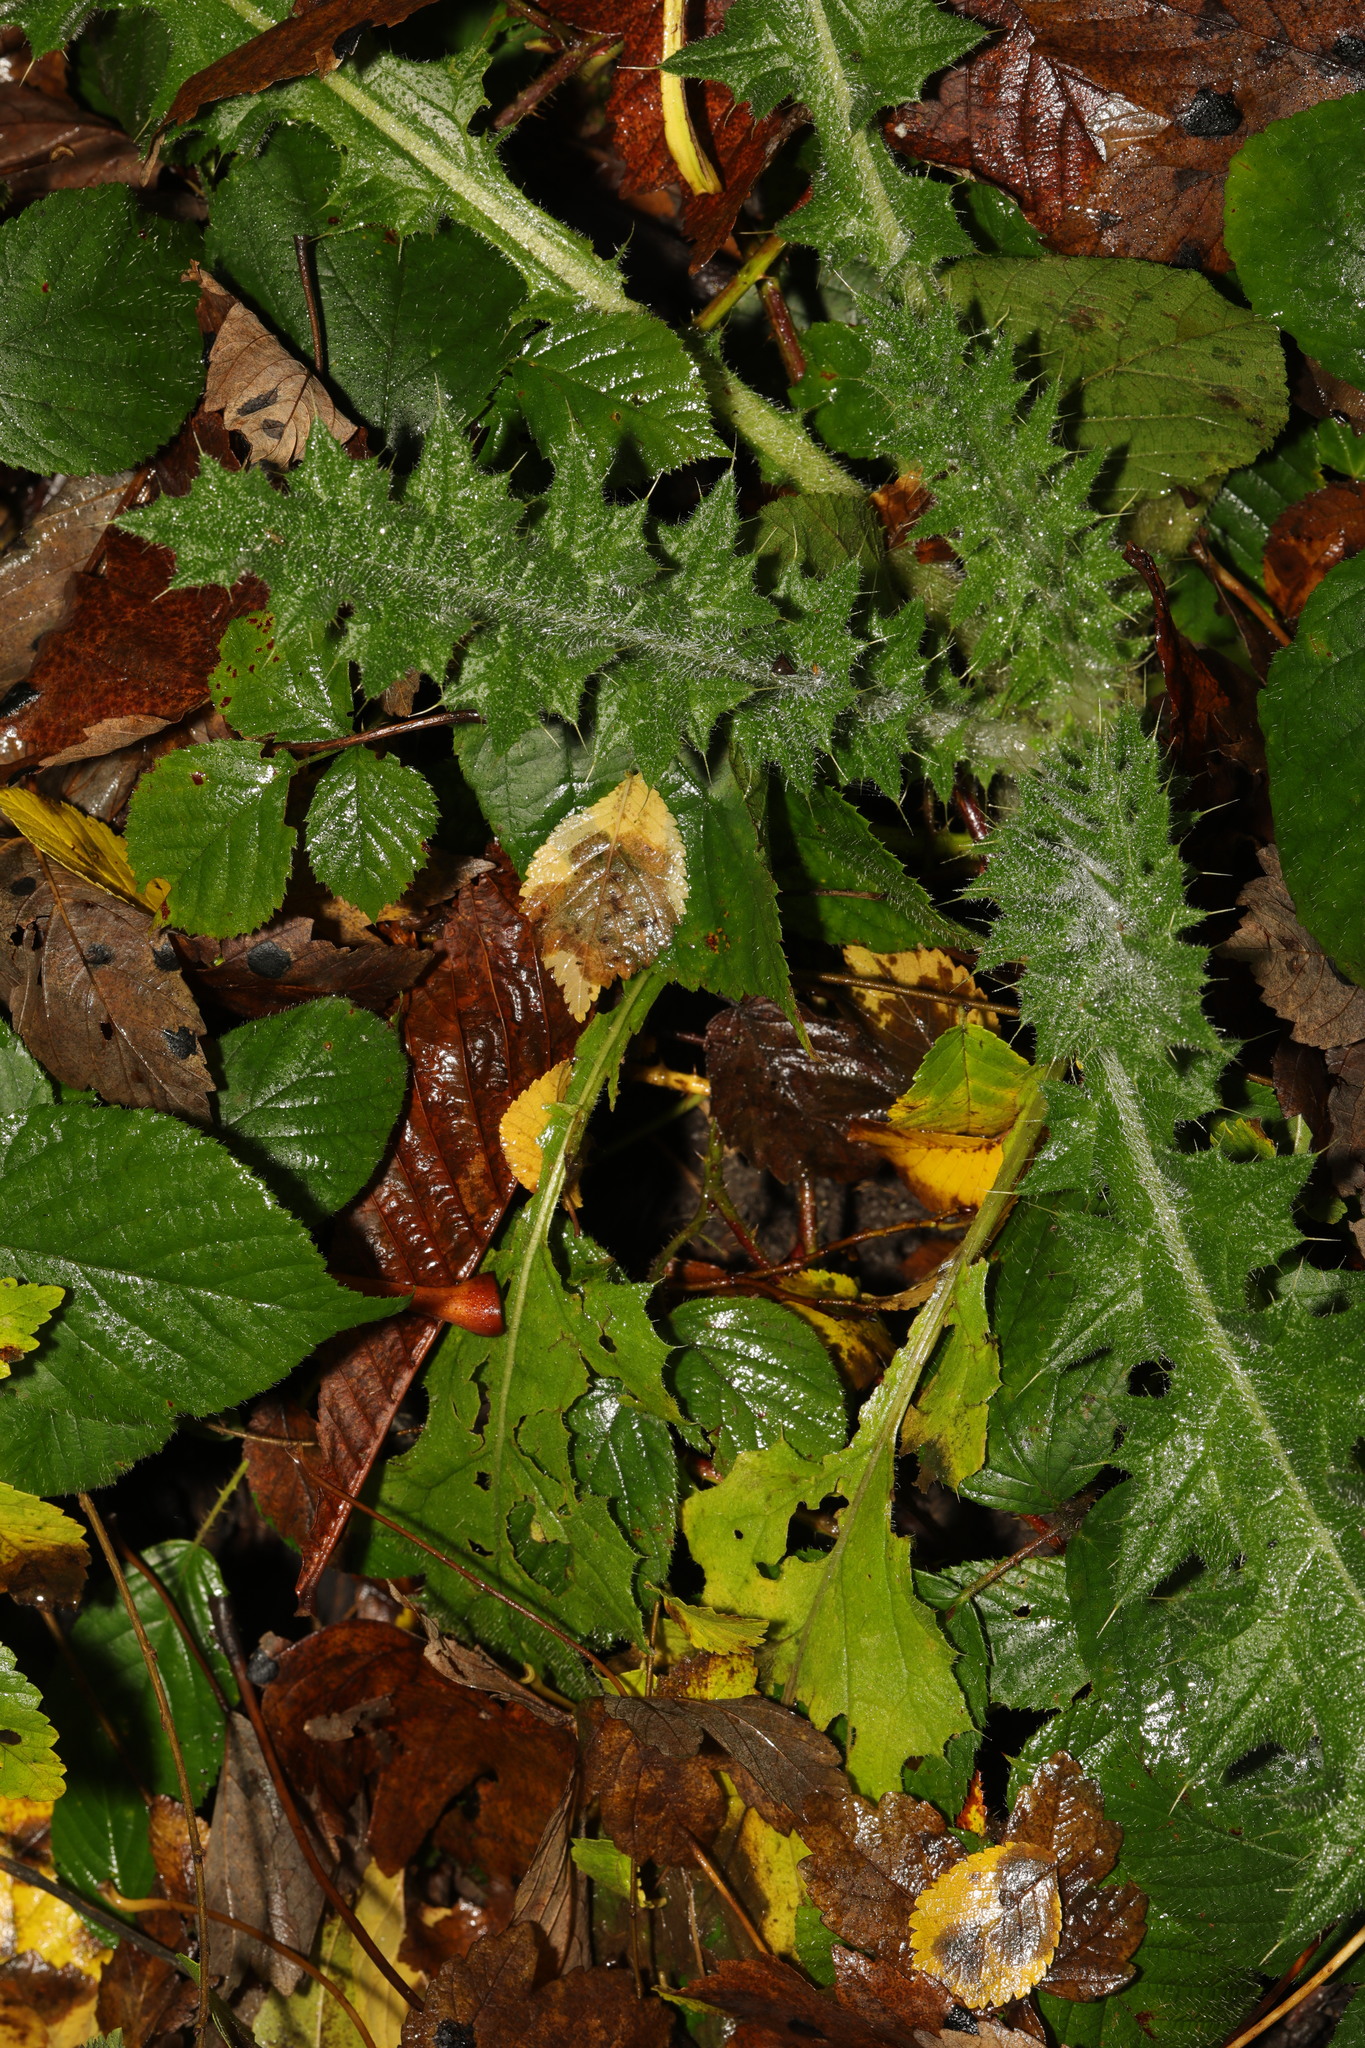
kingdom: Plantae
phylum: Tracheophyta
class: Magnoliopsida
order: Asterales
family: Asteraceae
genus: Cirsium
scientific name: Cirsium vulgare
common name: Bull thistle
